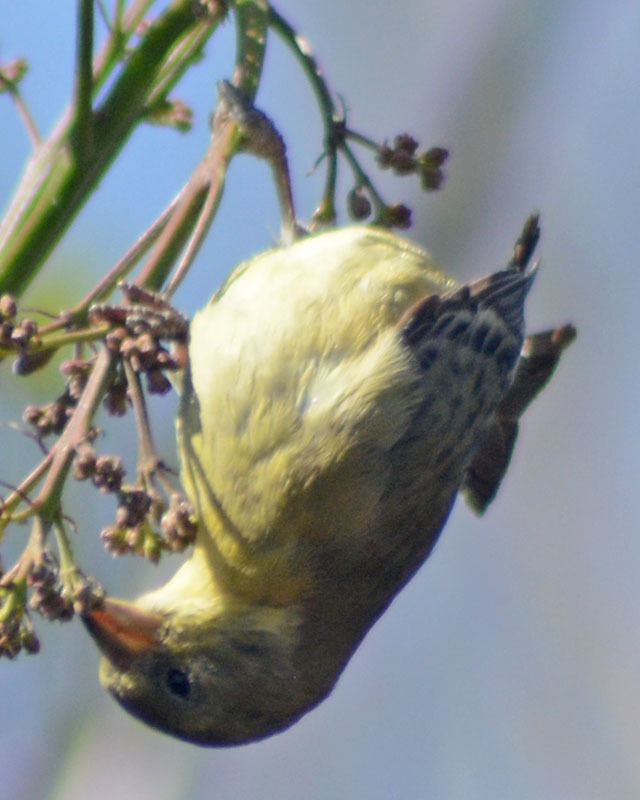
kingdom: Animalia
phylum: Chordata
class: Aves
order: Passeriformes
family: Fringillidae
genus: Spinus
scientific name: Spinus psaltria
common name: Lesser goldfinch
